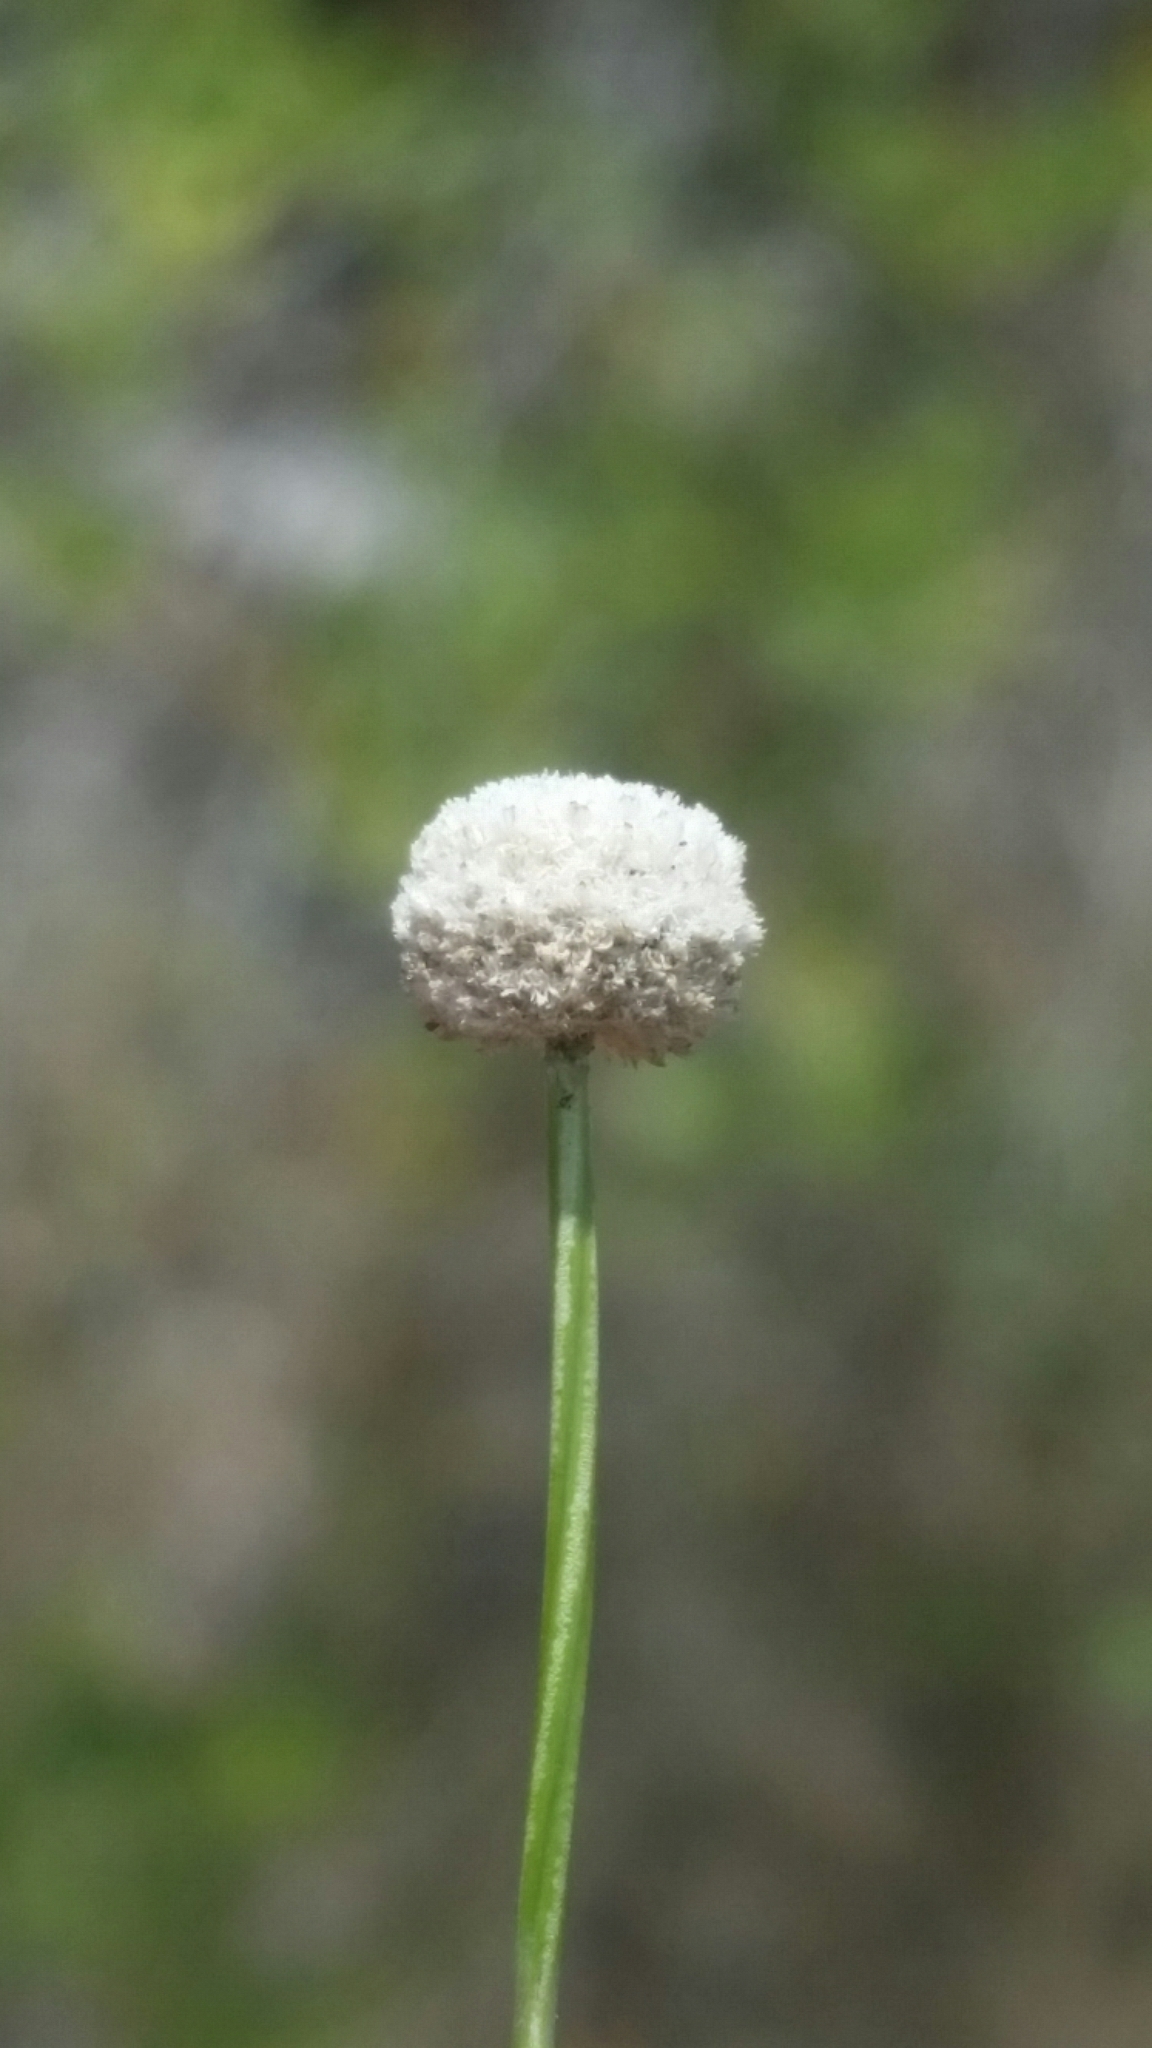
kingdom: Plantae
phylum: Tracheophyta
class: Liliopsida
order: Poales
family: Eriocaulaceae
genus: Paepalanthus
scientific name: Paepalanthus beyrichianus
